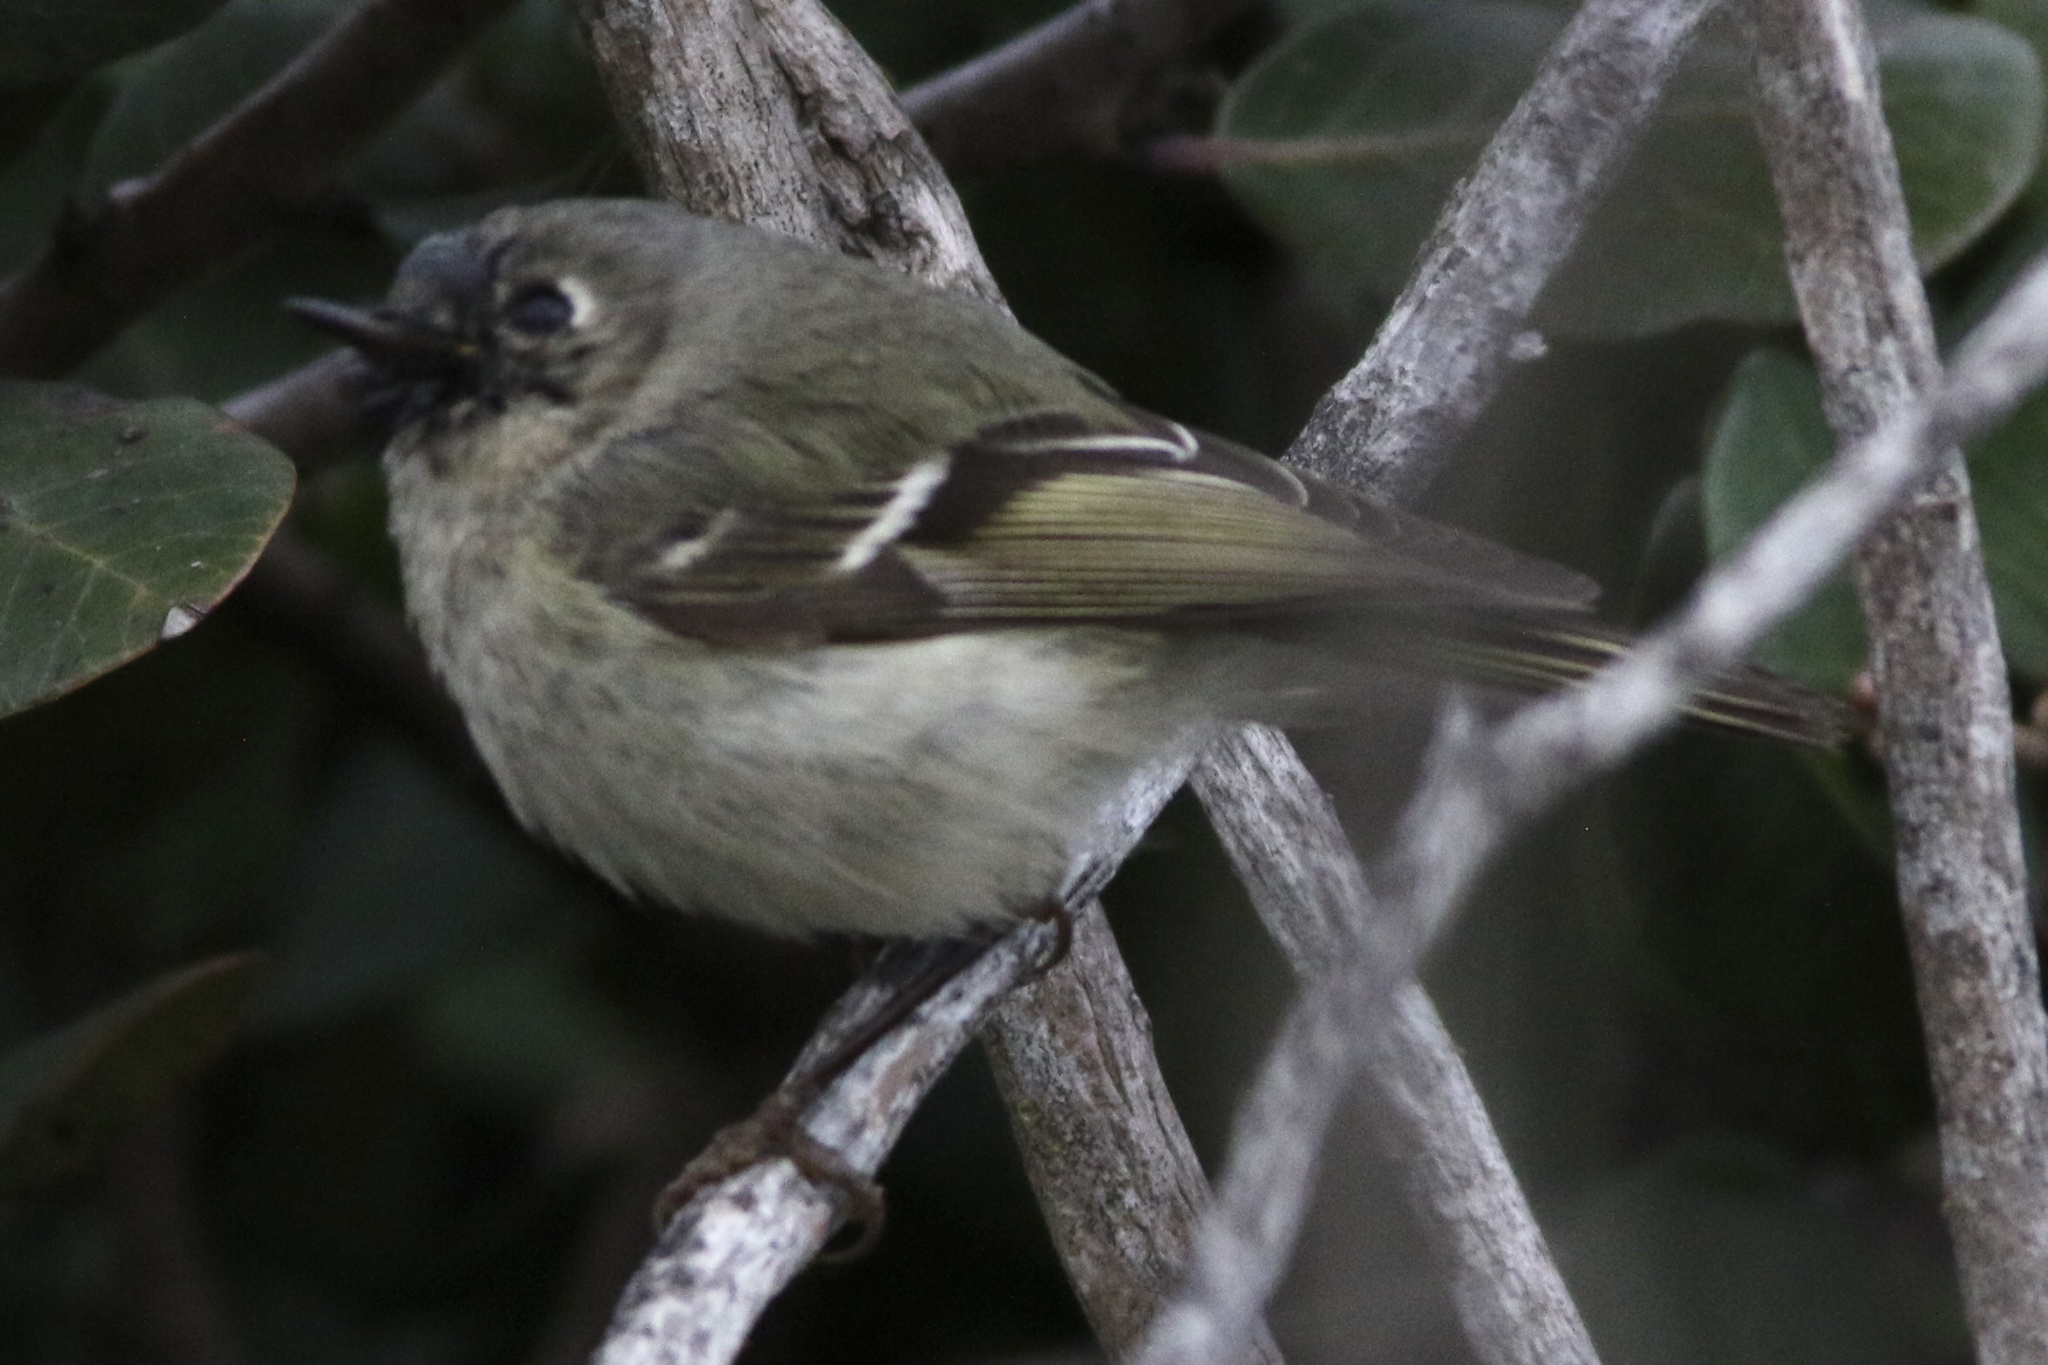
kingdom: Animalia
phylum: Chordata
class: Aves
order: Passeriformes
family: Regulidae
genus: Regulus
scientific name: Regulus calendula
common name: Ruby-crowned kinglet
